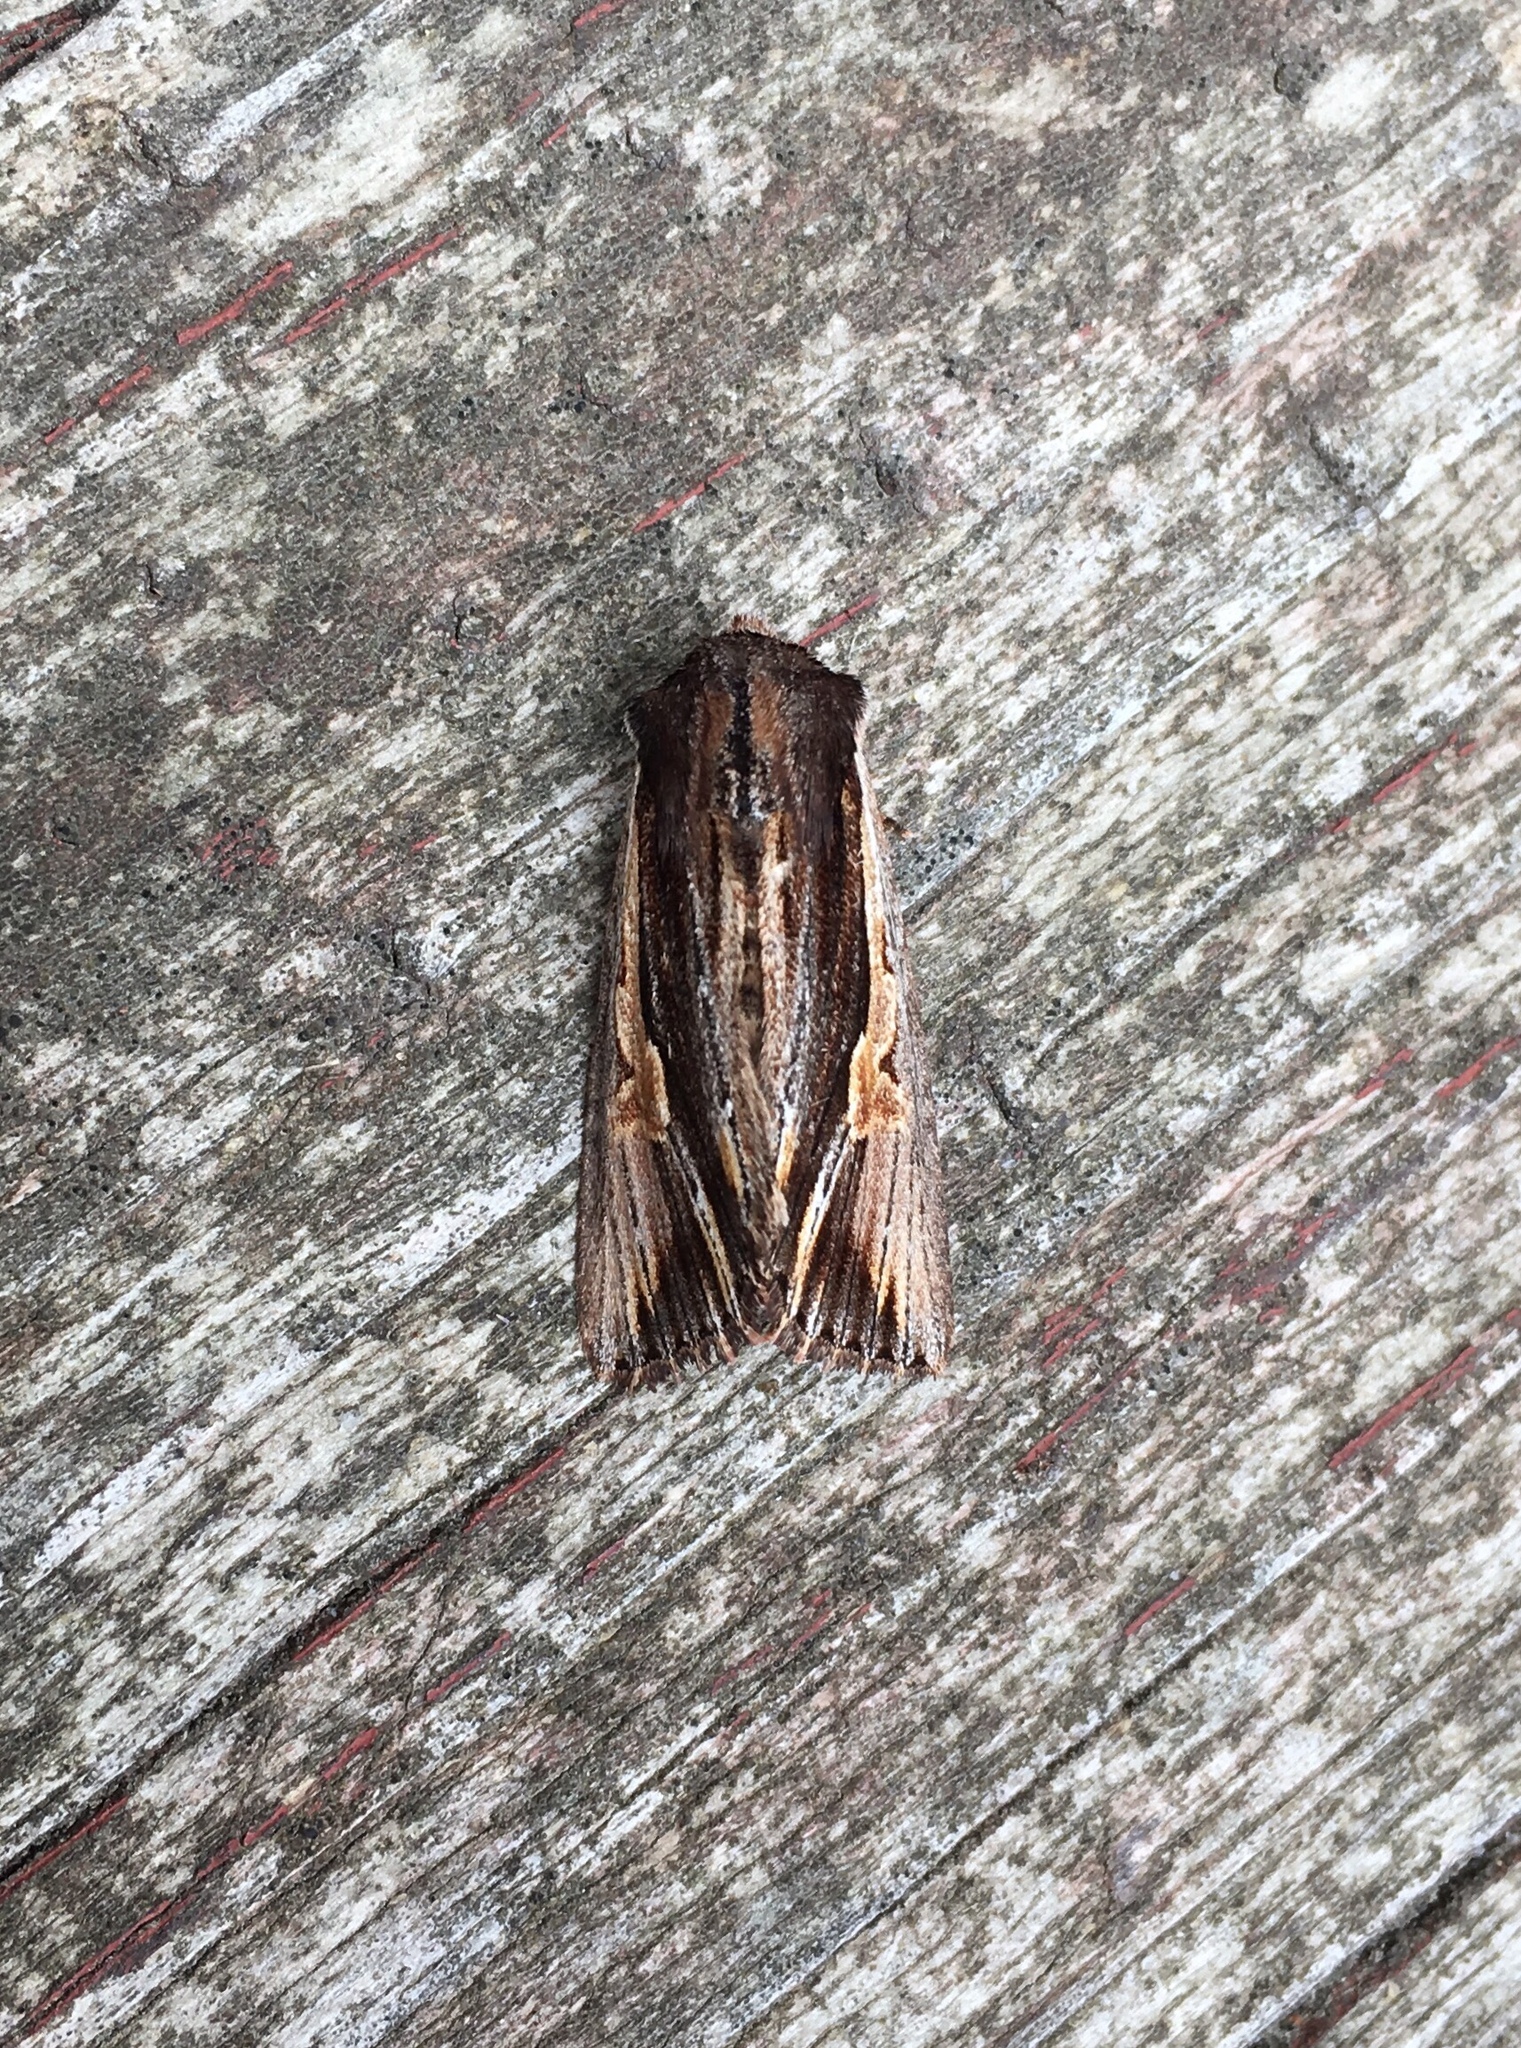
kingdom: Animalia
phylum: Arthropoda
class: Insecta
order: Lepidoptera
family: Noctuidae
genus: Achatia
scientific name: Achatia evicta
